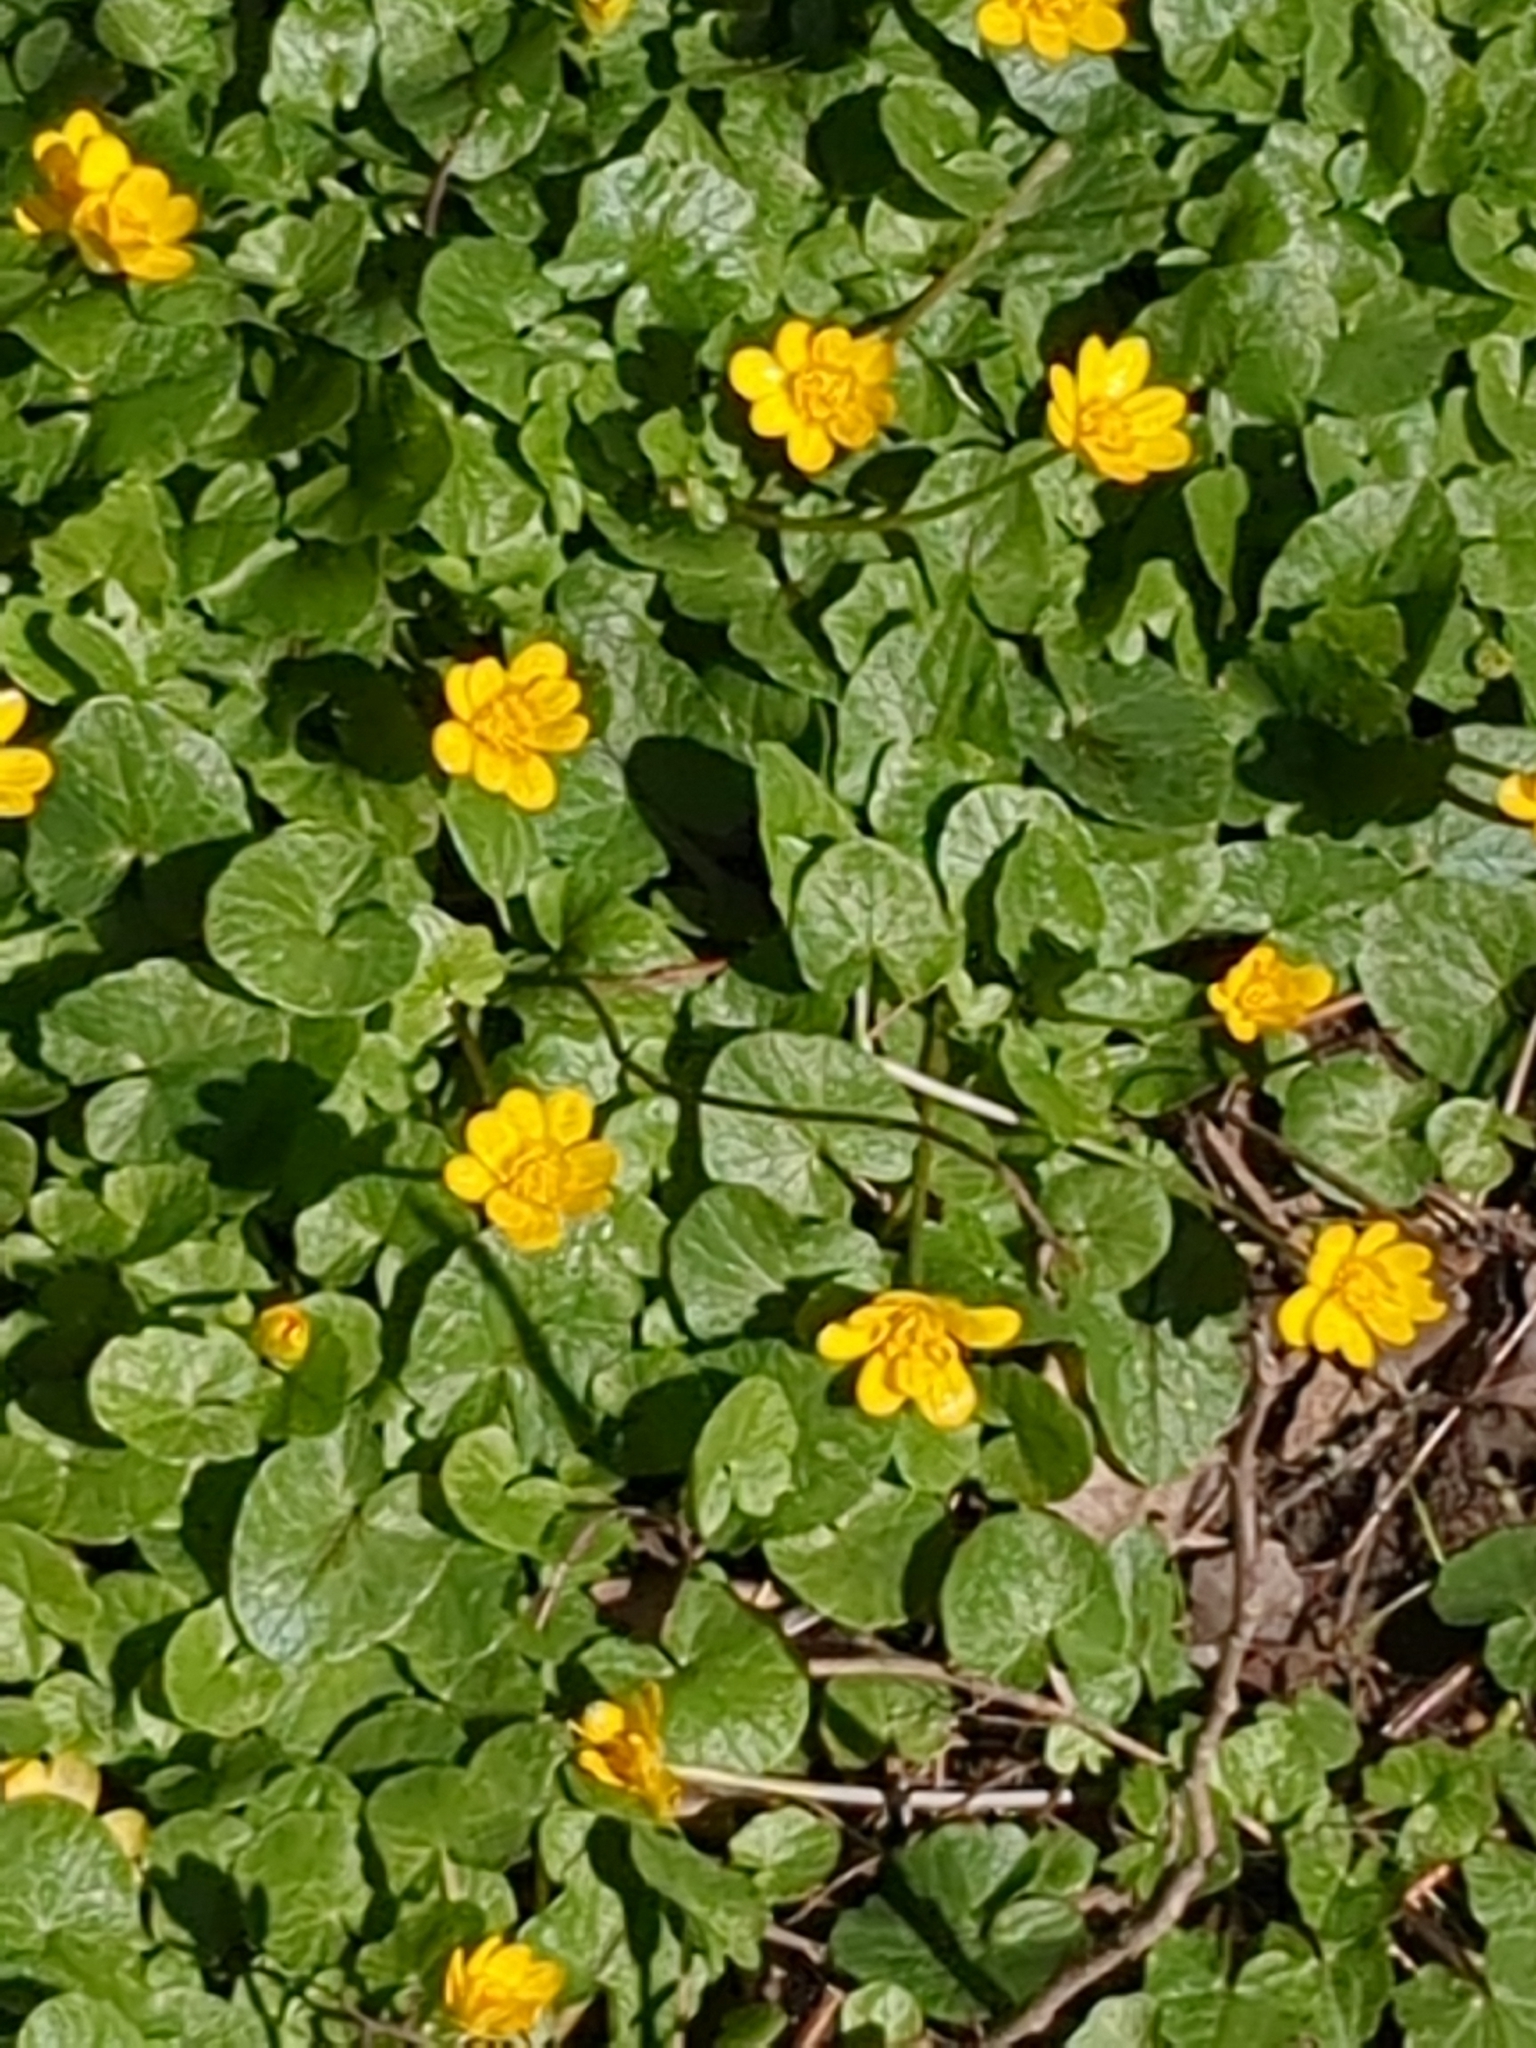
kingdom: Plantae
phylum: Tracheophyta
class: Magnoliopsida
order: Ranunculales
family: Ranunculaceae
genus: Ficaria
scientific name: Ficaria verna
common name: Lesser celandine
